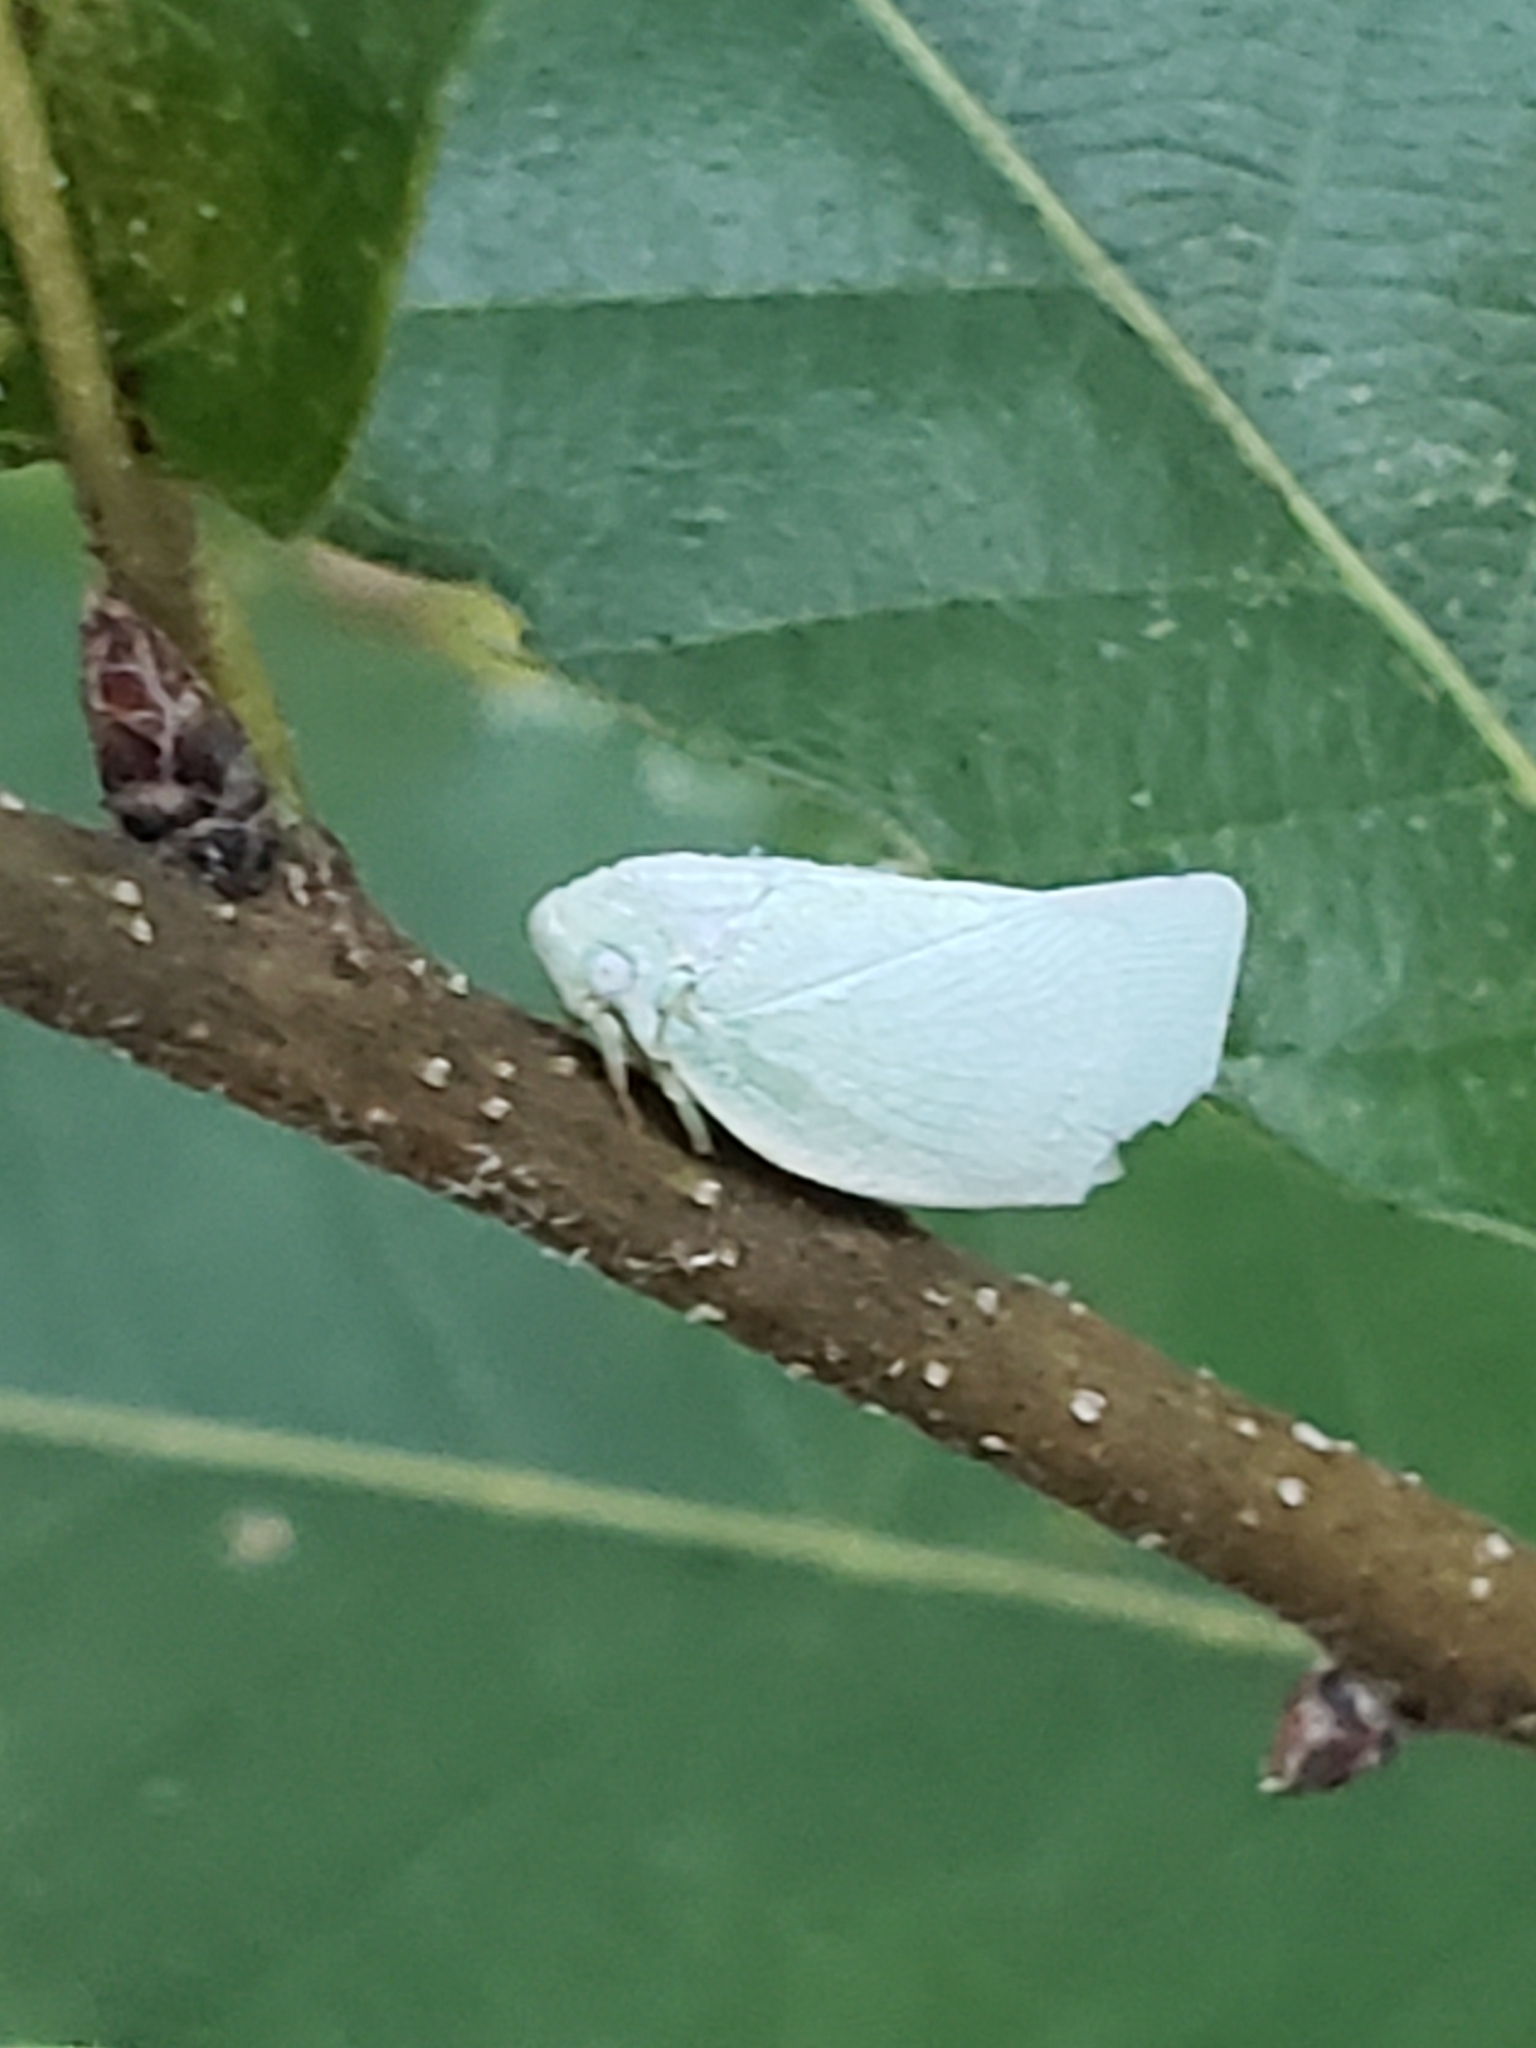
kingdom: Animalia
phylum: Arthropoda
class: Insecta
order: Hemiptera
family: Flatidae
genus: Flatormenis
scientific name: Flatormenis proxima
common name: Northern flatid planthopper
